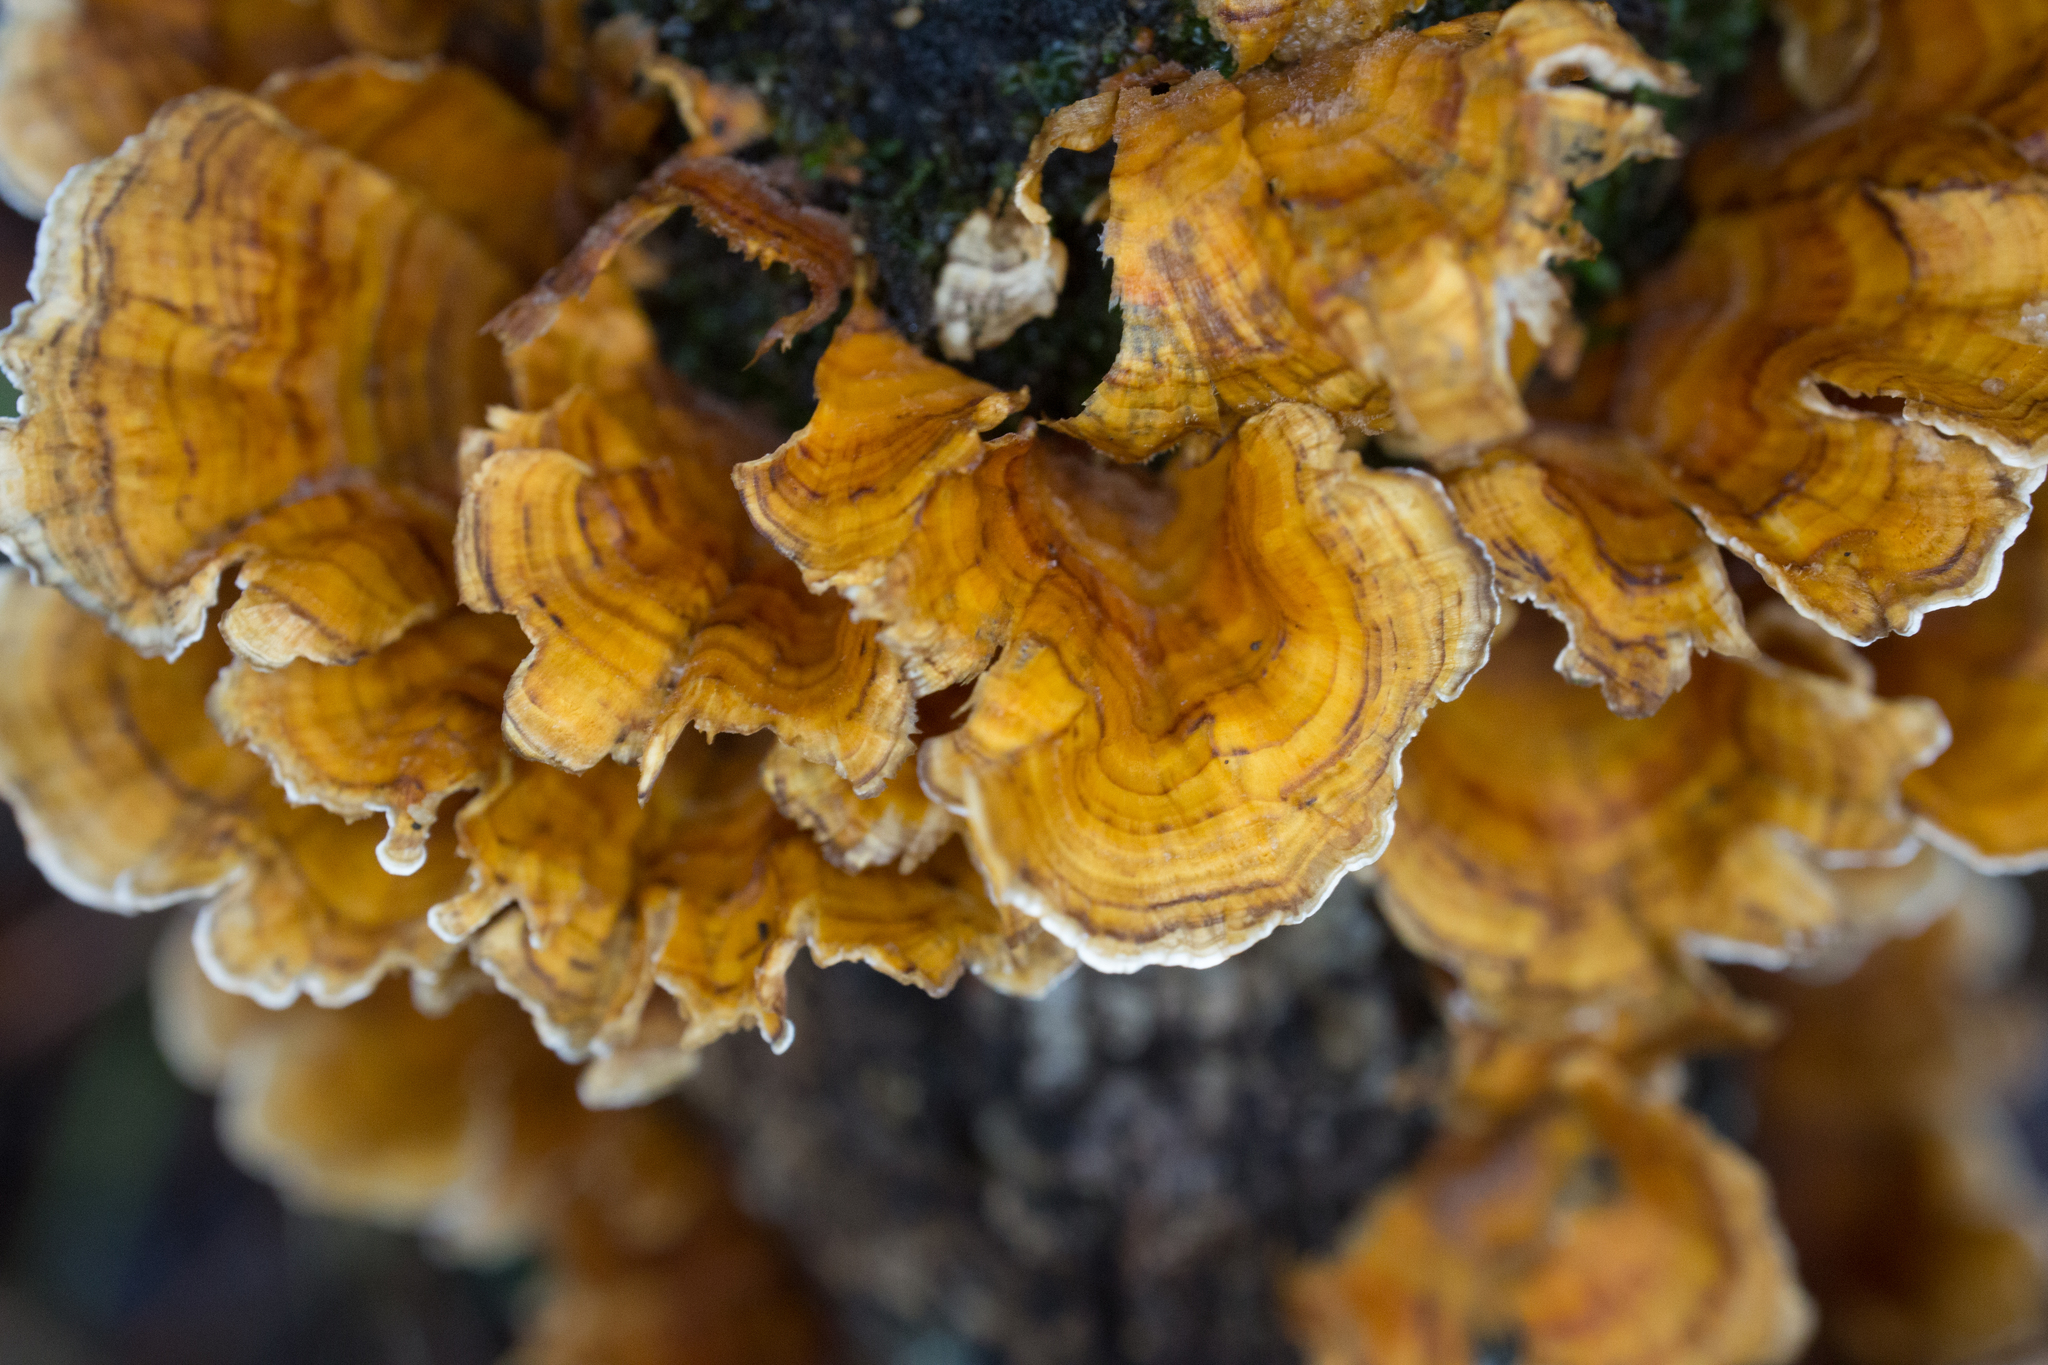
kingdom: Fungi
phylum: Basidiomycota
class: Agaricomycetes
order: Russulales
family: Stereaceae
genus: Stereum
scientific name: Stereum complicatum
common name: Crowded parchment
